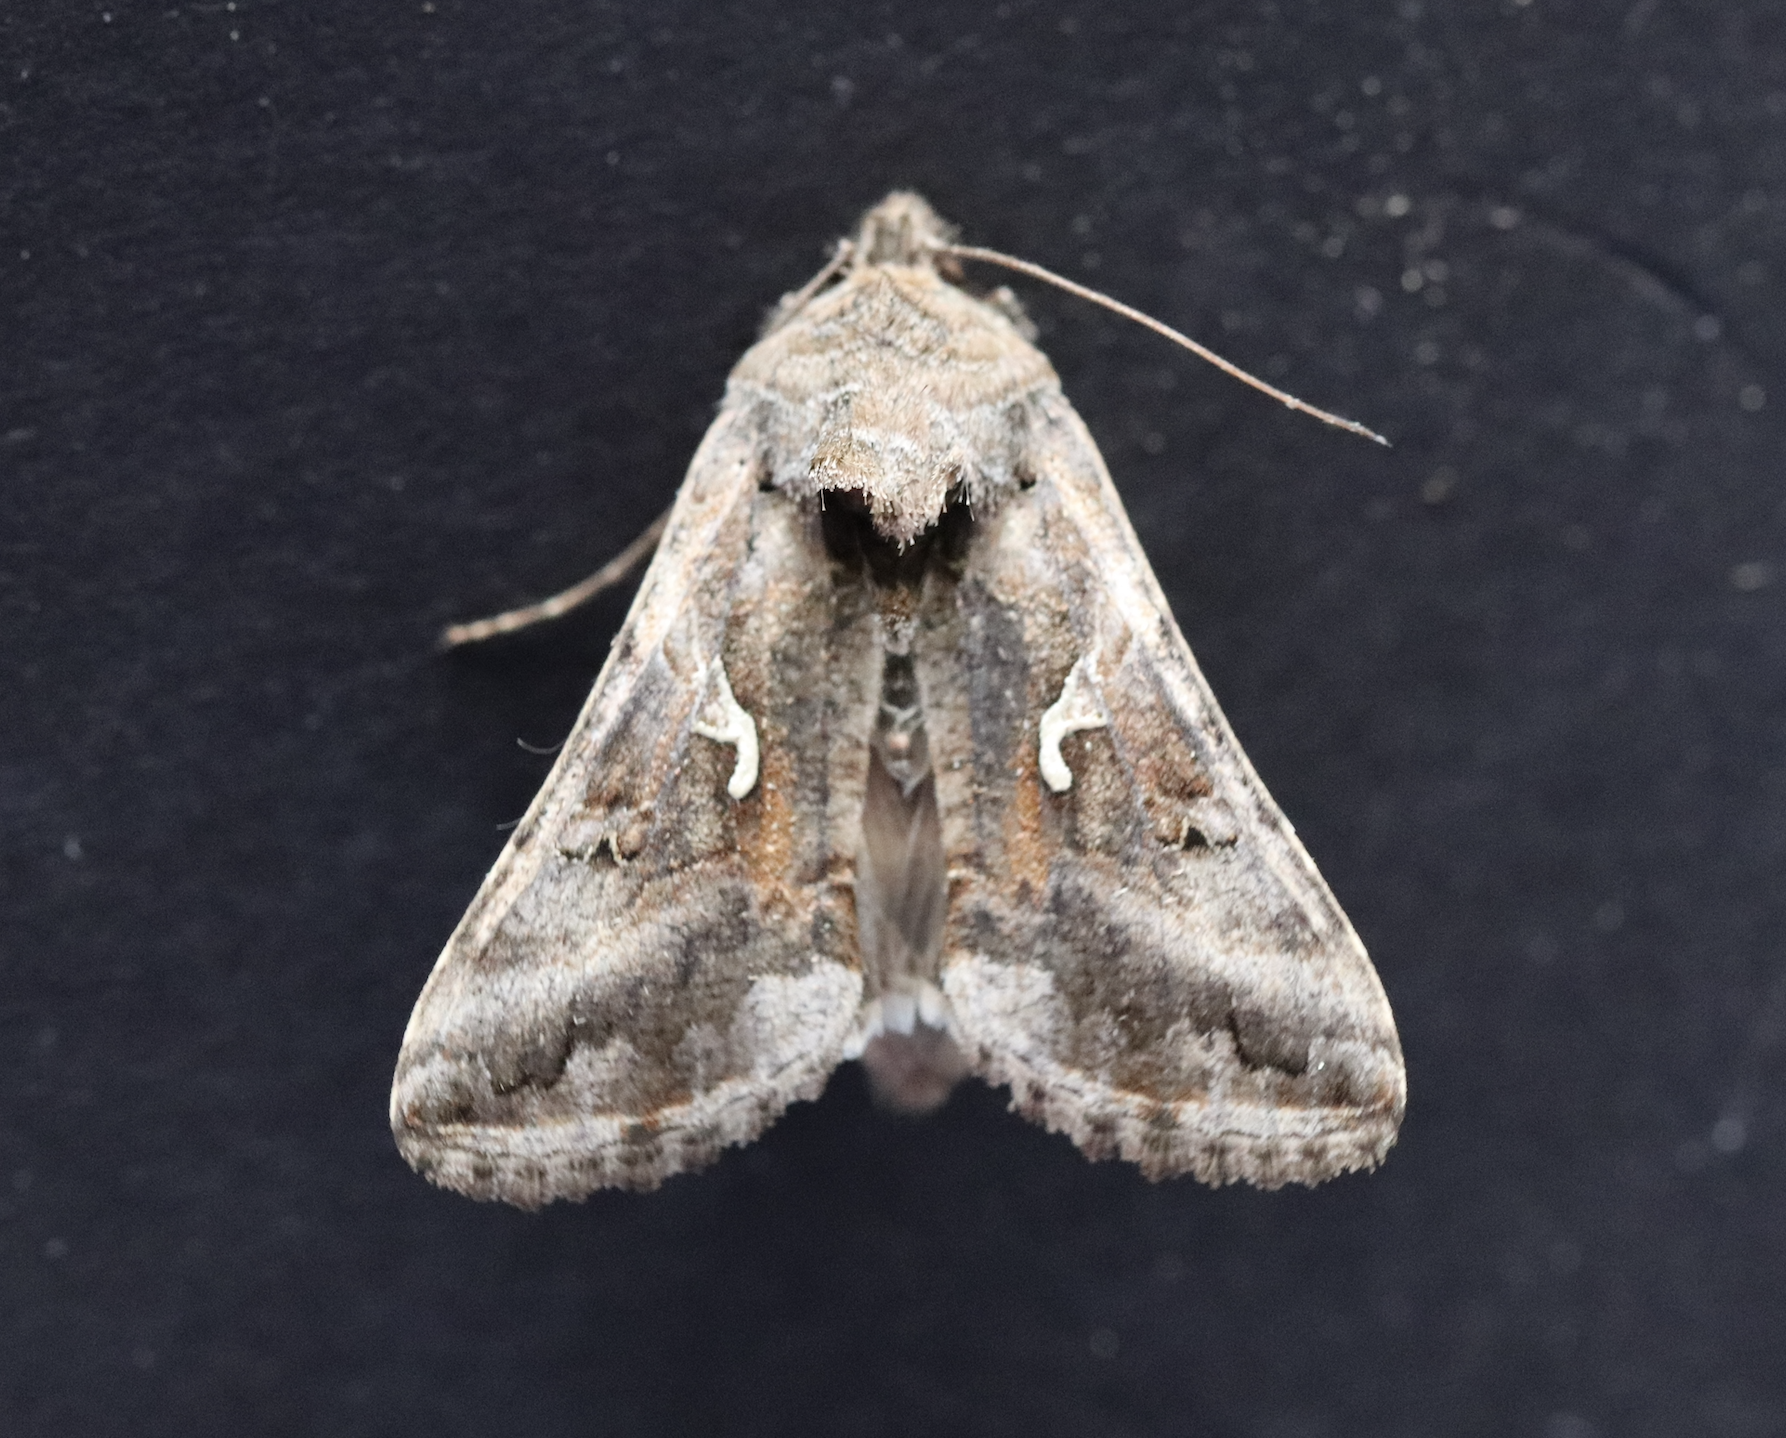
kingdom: Animalia
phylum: Arthropoda
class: Insecta
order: Lepidoptera
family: Noctuidae
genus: Autographa
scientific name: Autographa gamma
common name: Silver y
